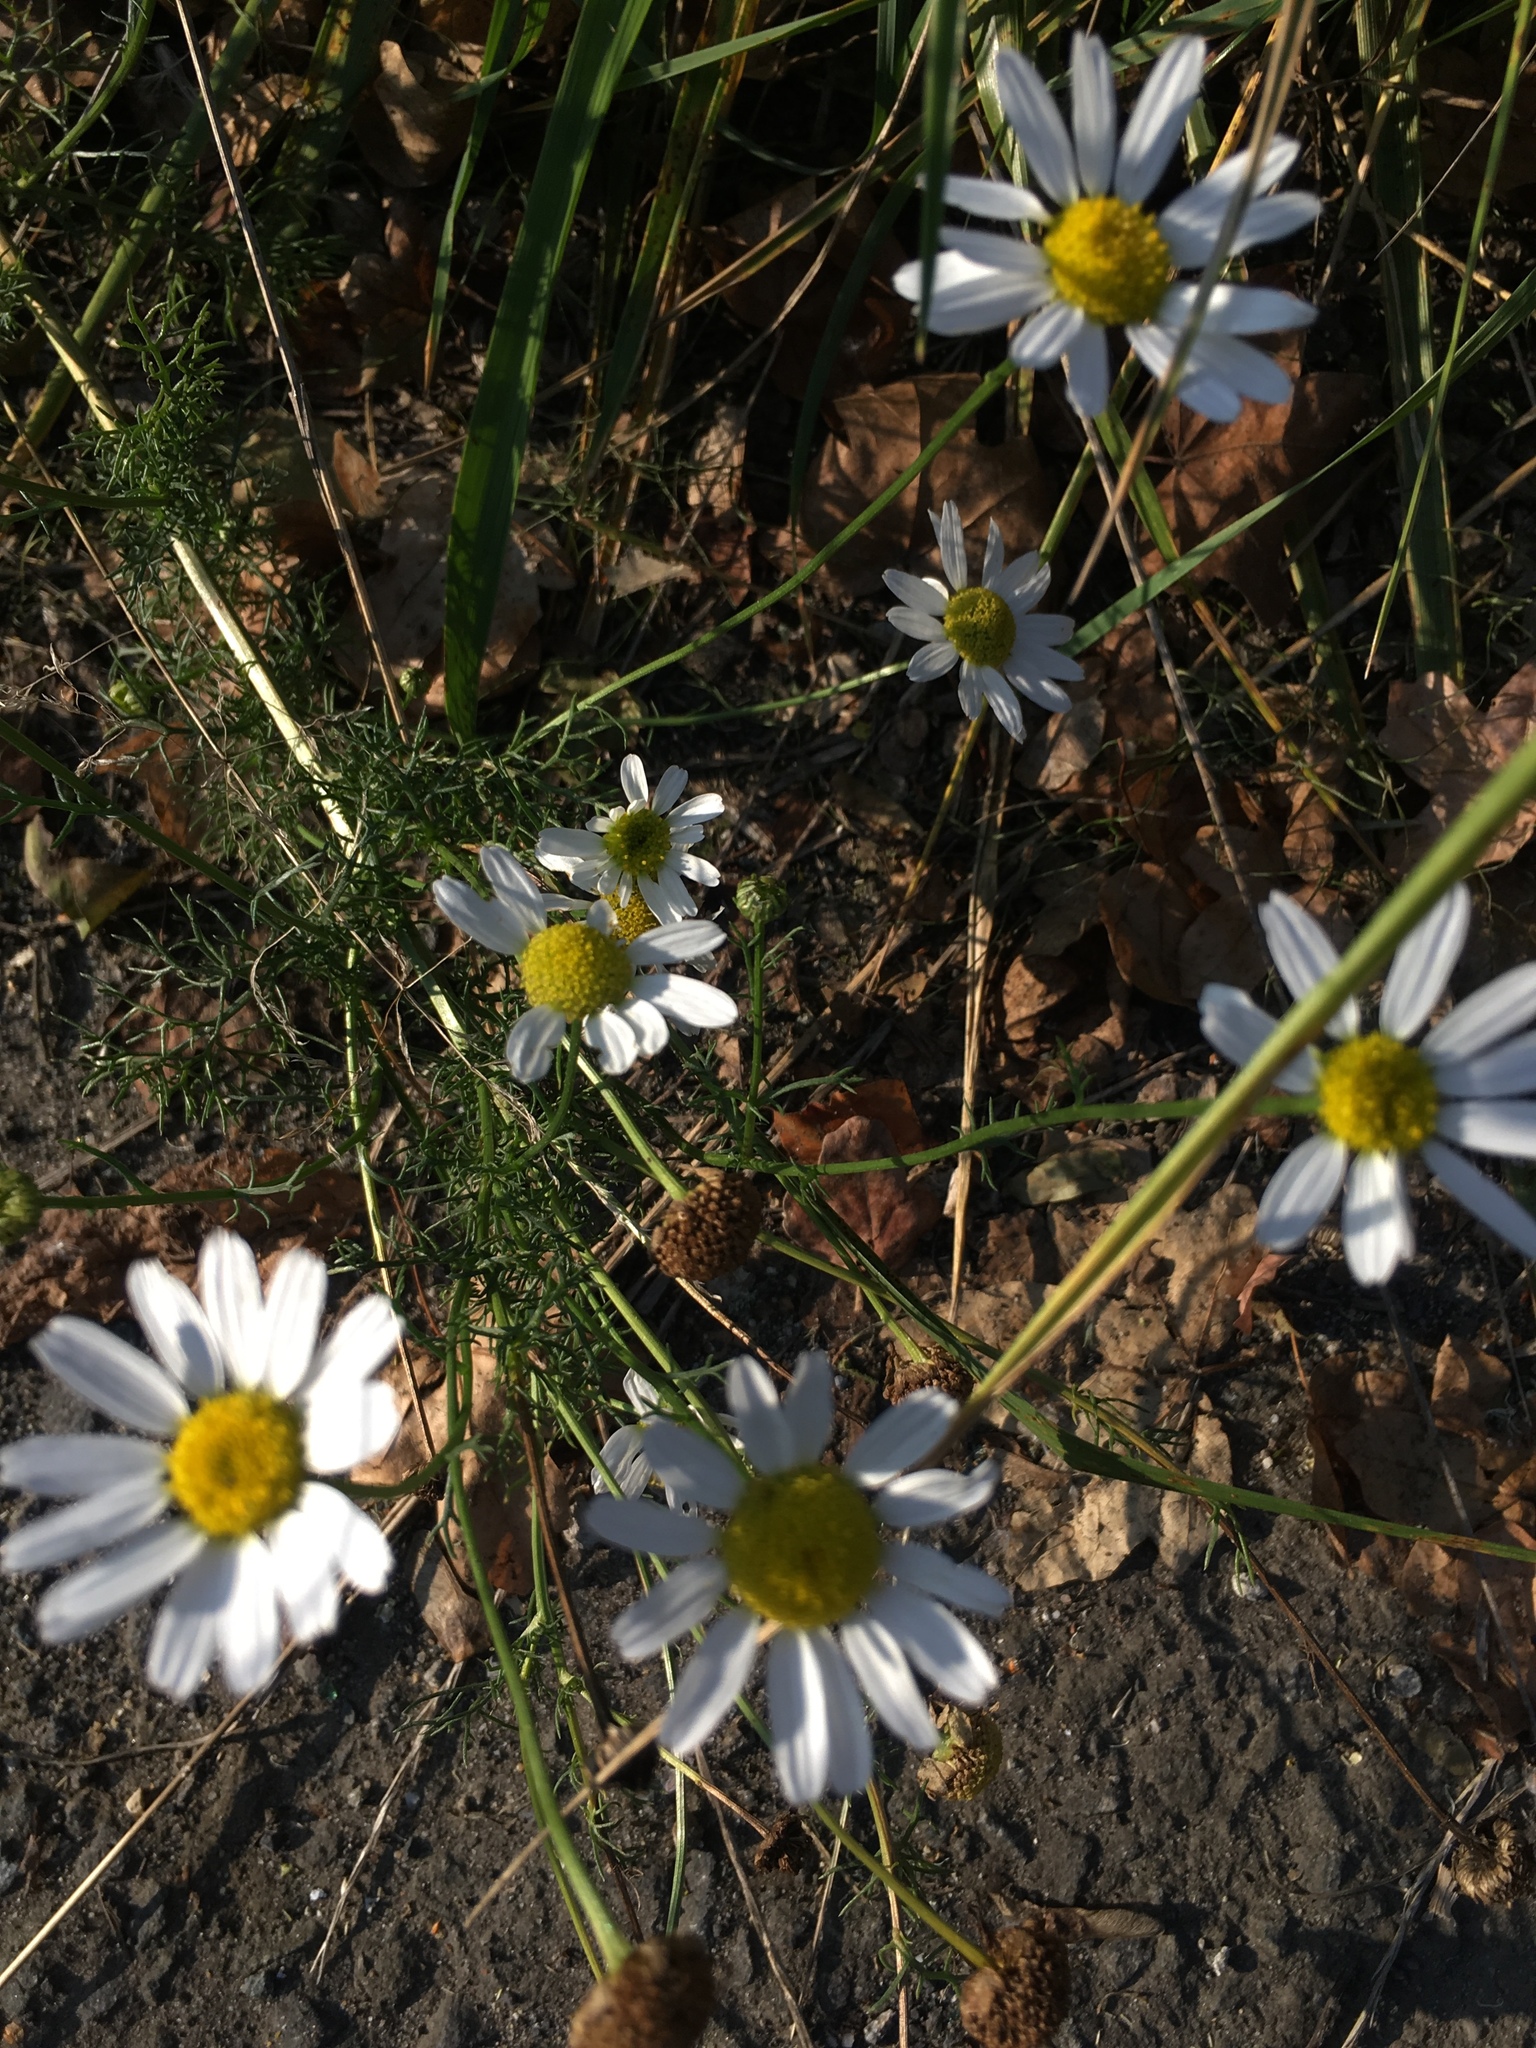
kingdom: Plantae
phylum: Tracheophyta
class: Magnoliopsida
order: Asterales
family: Asteraceae
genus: Tripleurospermum
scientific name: Tripleurospermum inodorum
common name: Scentless mayweed
